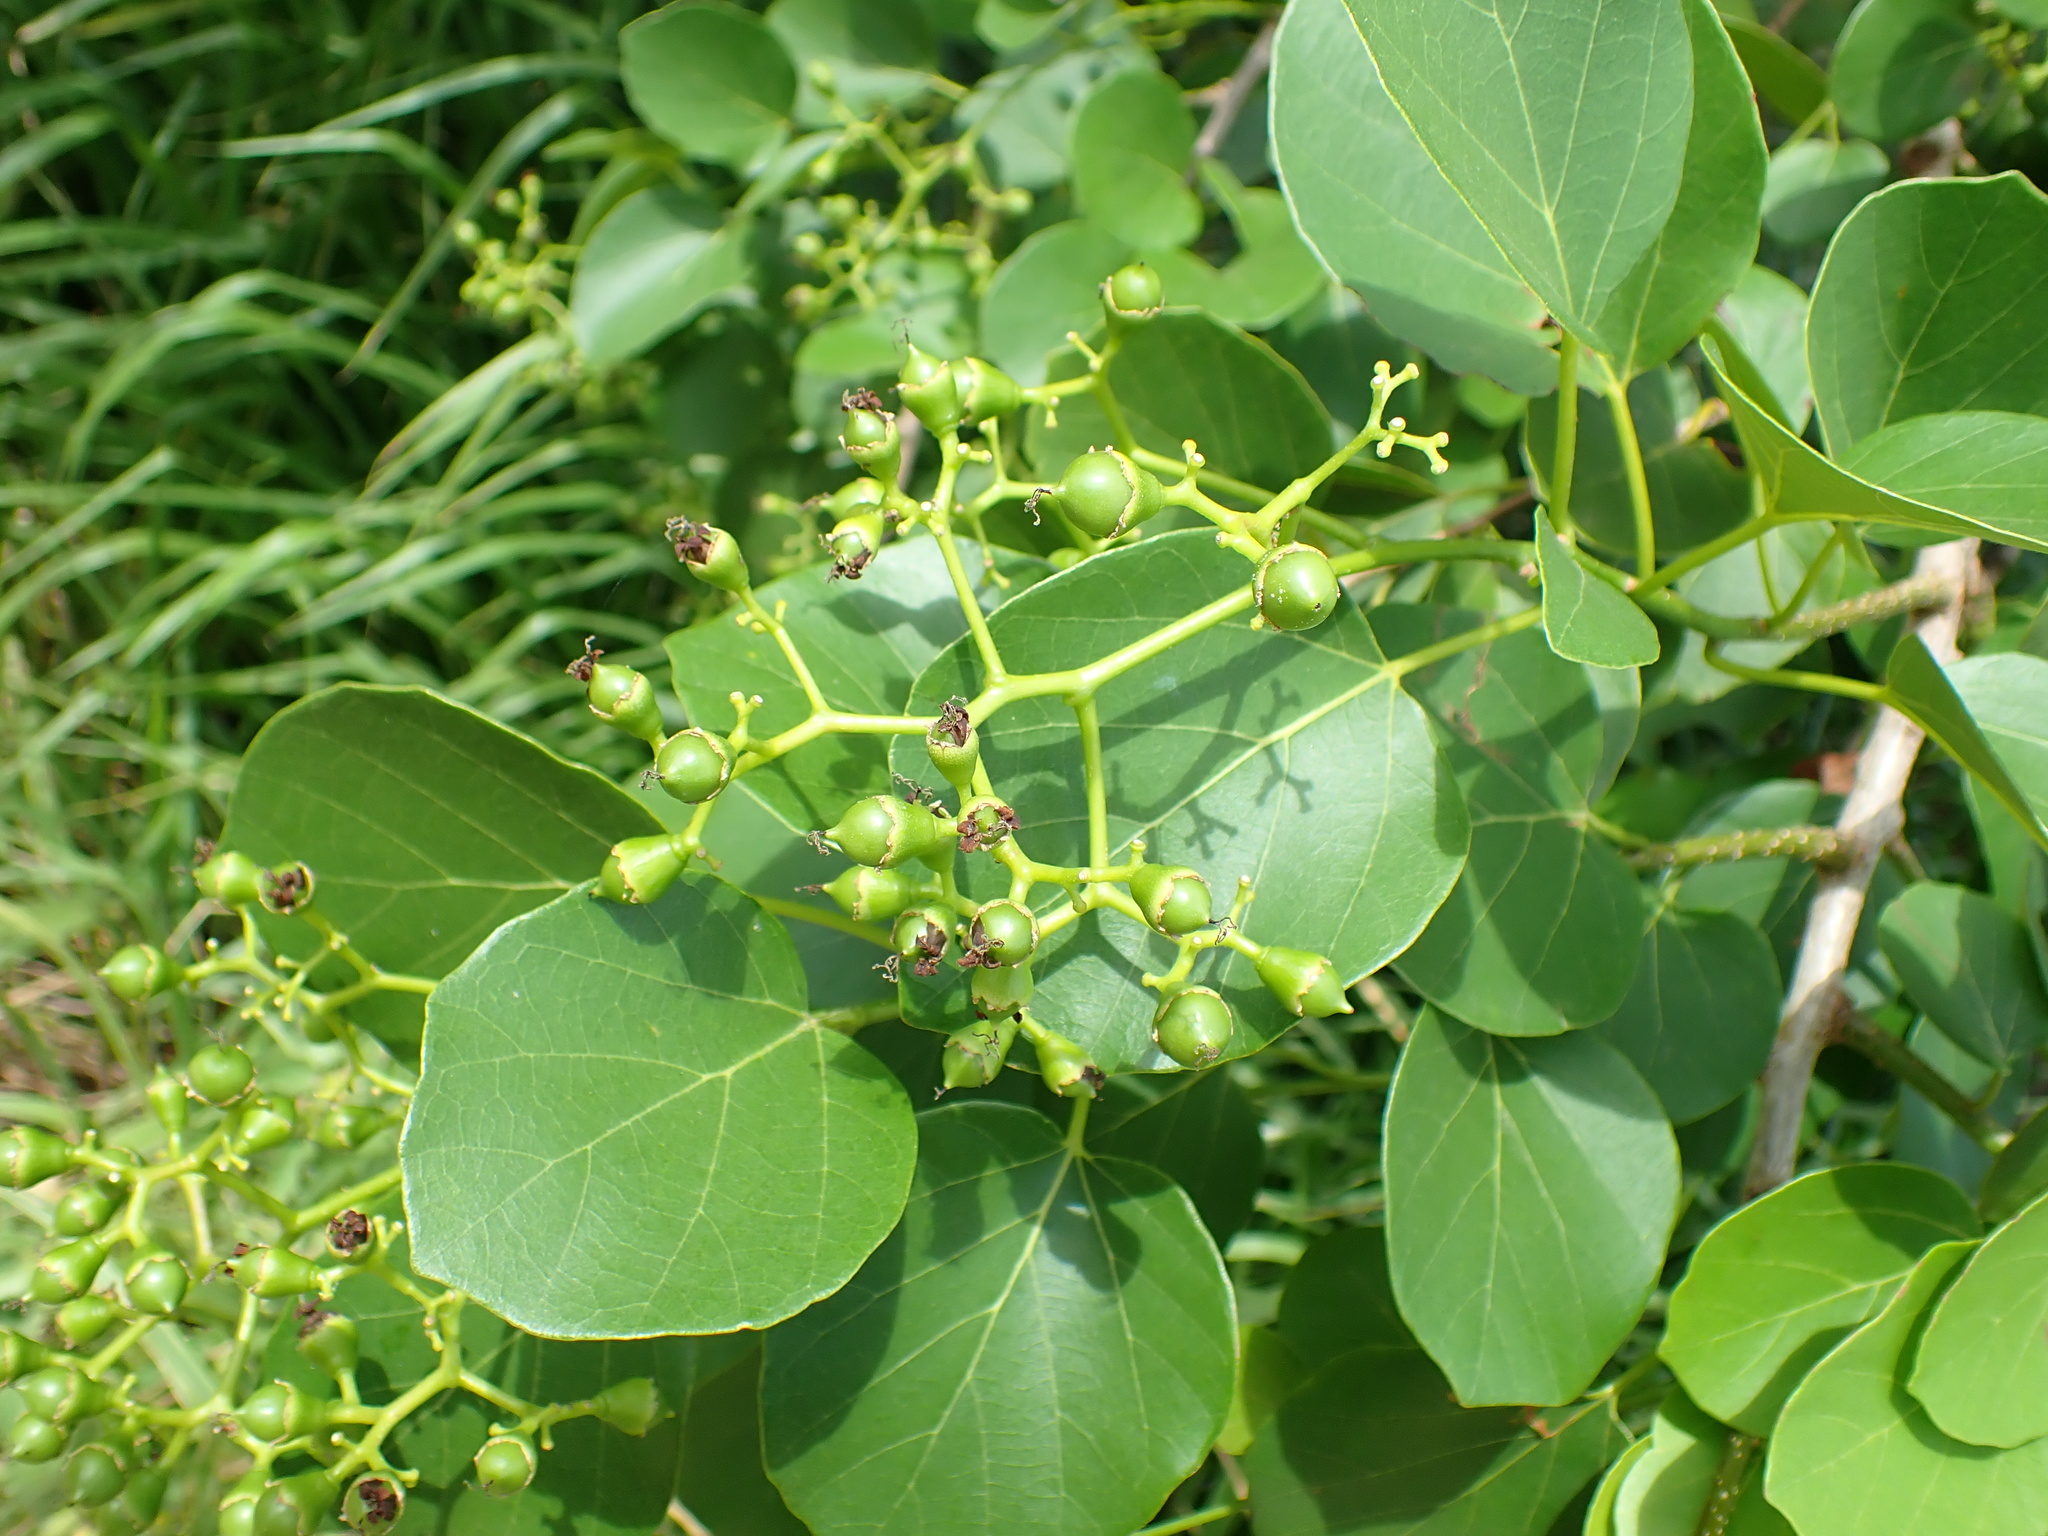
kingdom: Plantae
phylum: Tracheophyta
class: Magnoliopsida
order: Boraginales
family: Cordiaceae
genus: Cordia
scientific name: Cordia dichotoma
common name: Fragrant manjack
